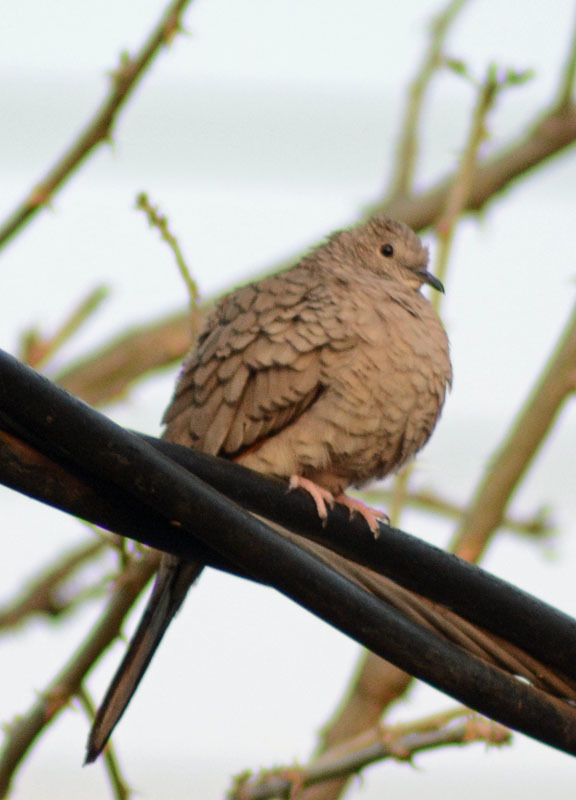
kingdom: Animalia
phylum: Chordata
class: Aves
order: Columbiformes
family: Columbidae
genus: Columbina
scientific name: Columbina inca
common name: Inca dove
